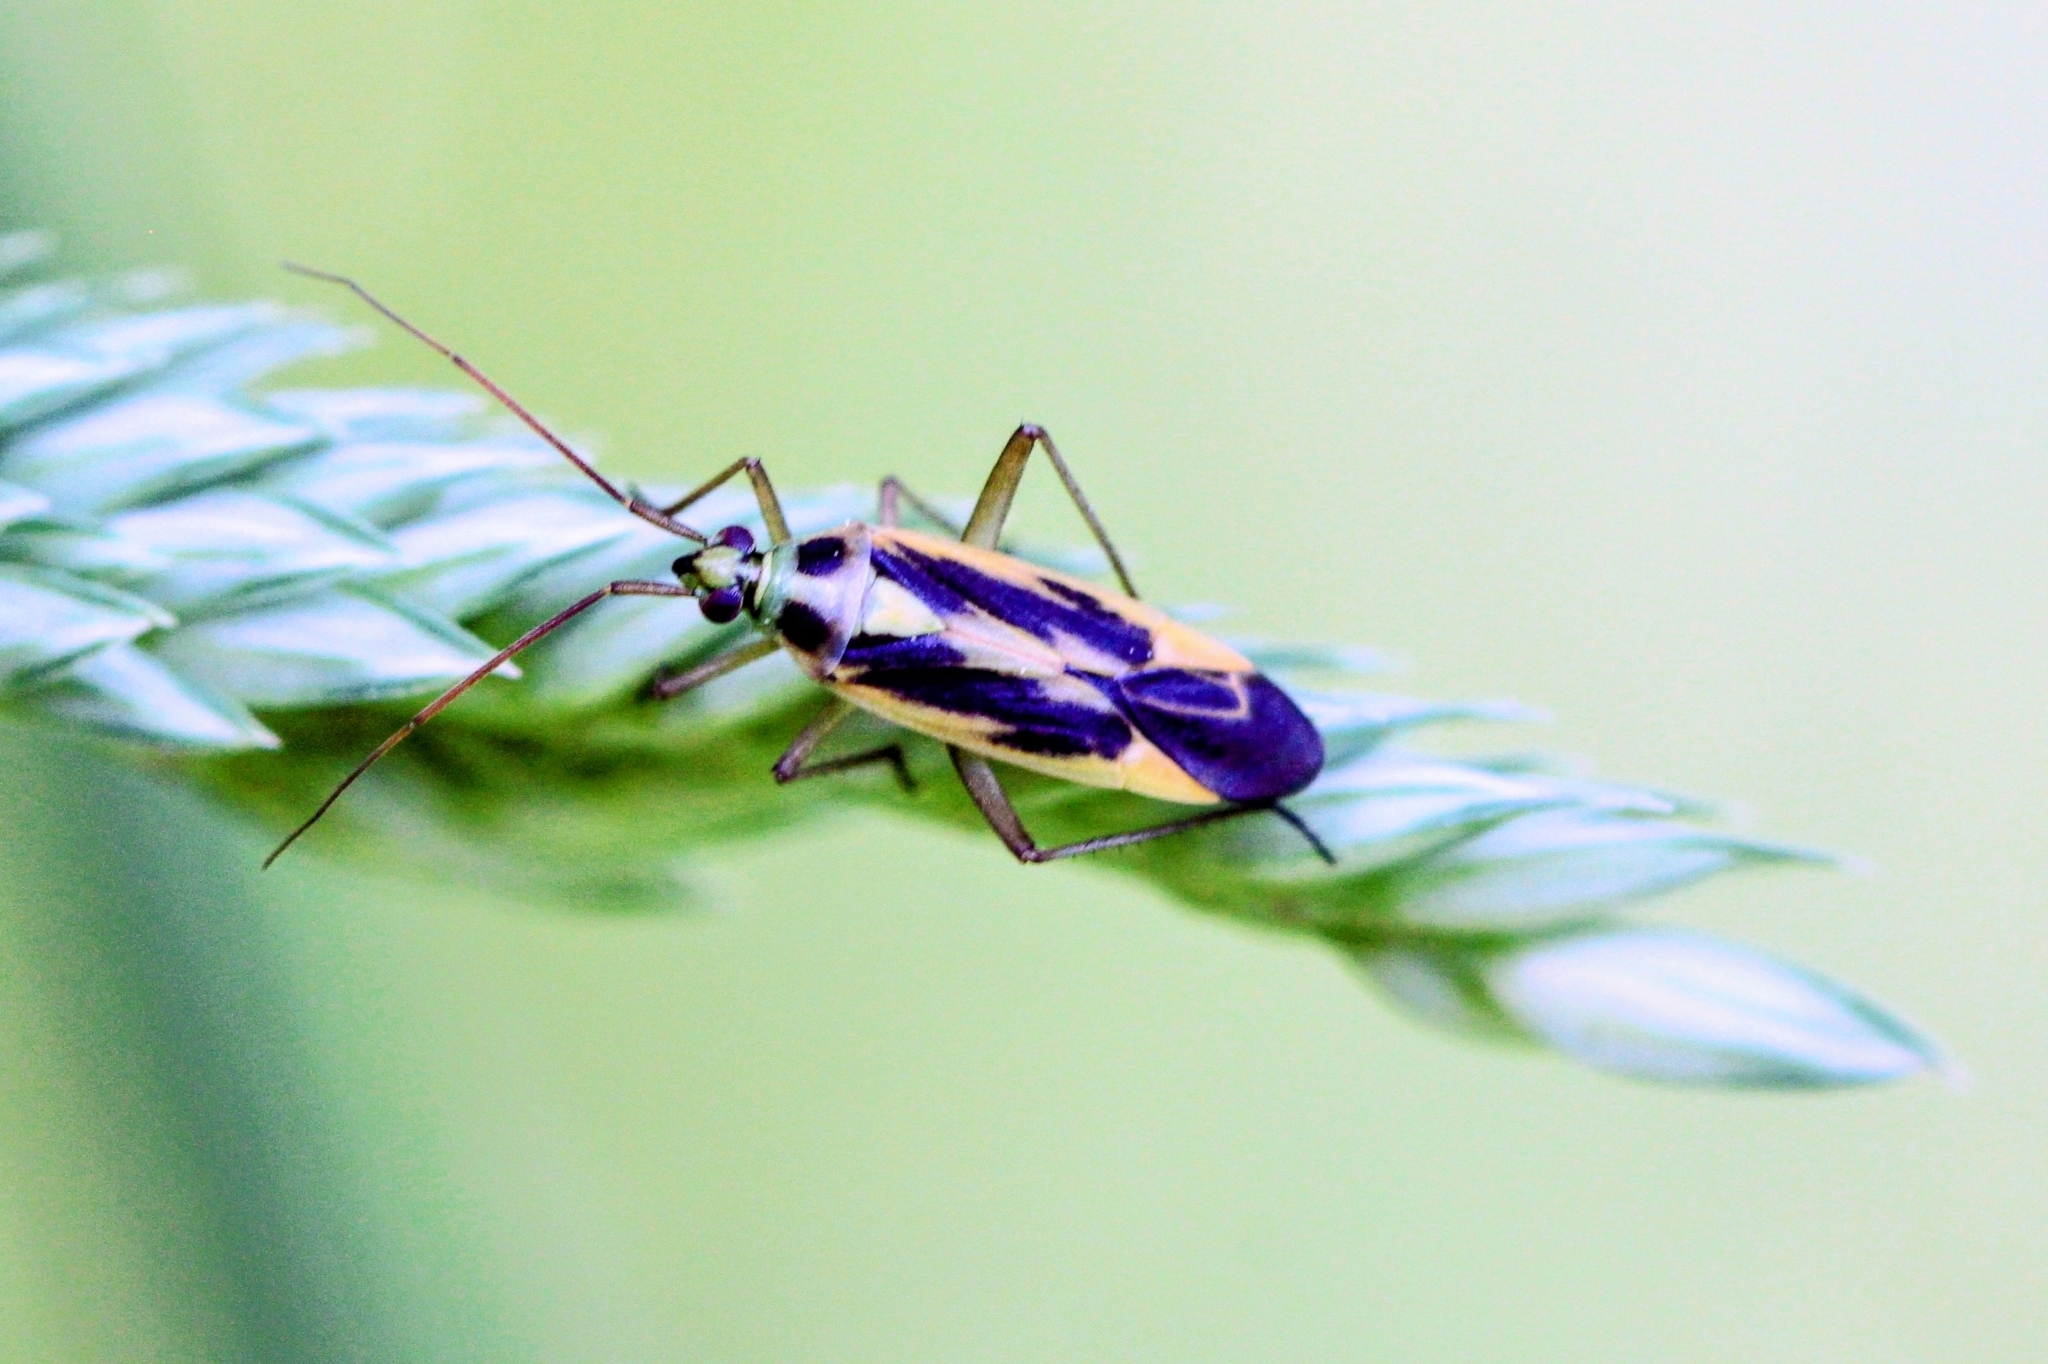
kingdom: Animalia
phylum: Arthropoda
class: Insecta
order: Hemiptera
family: Miridae
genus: Stenotus
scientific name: Stenotus binotatus
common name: Plant bug
